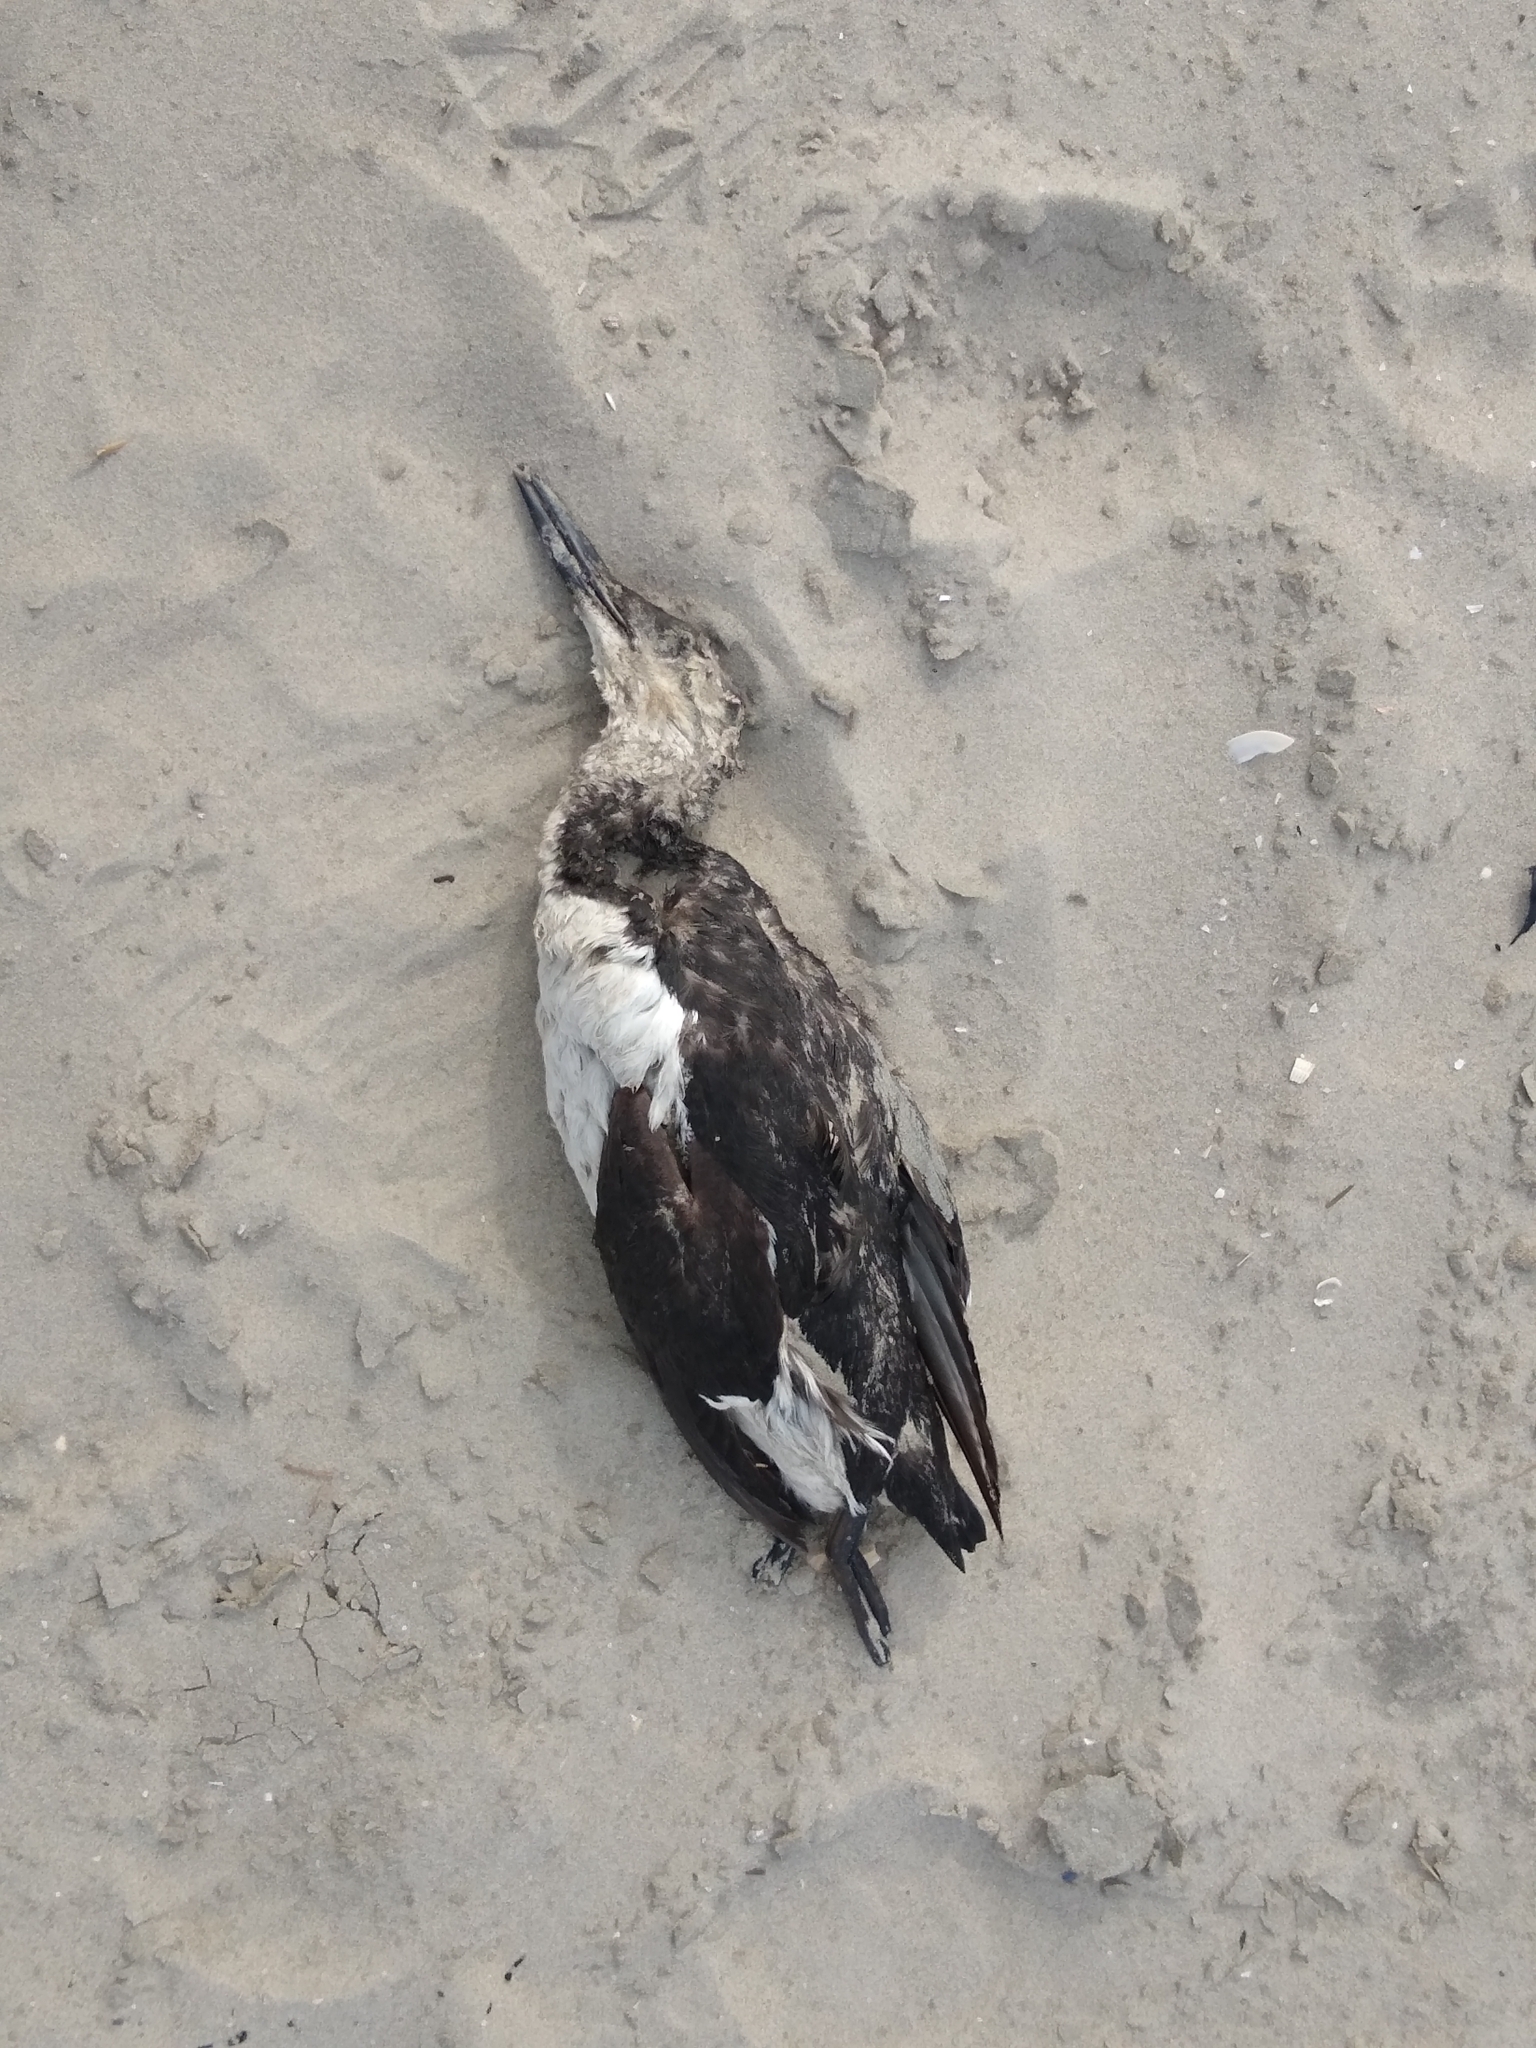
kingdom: Animalia
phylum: Chordata
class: Aves
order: Charadriiformes
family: Alcidae
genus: Uria
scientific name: Uria aalge
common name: Common murre
